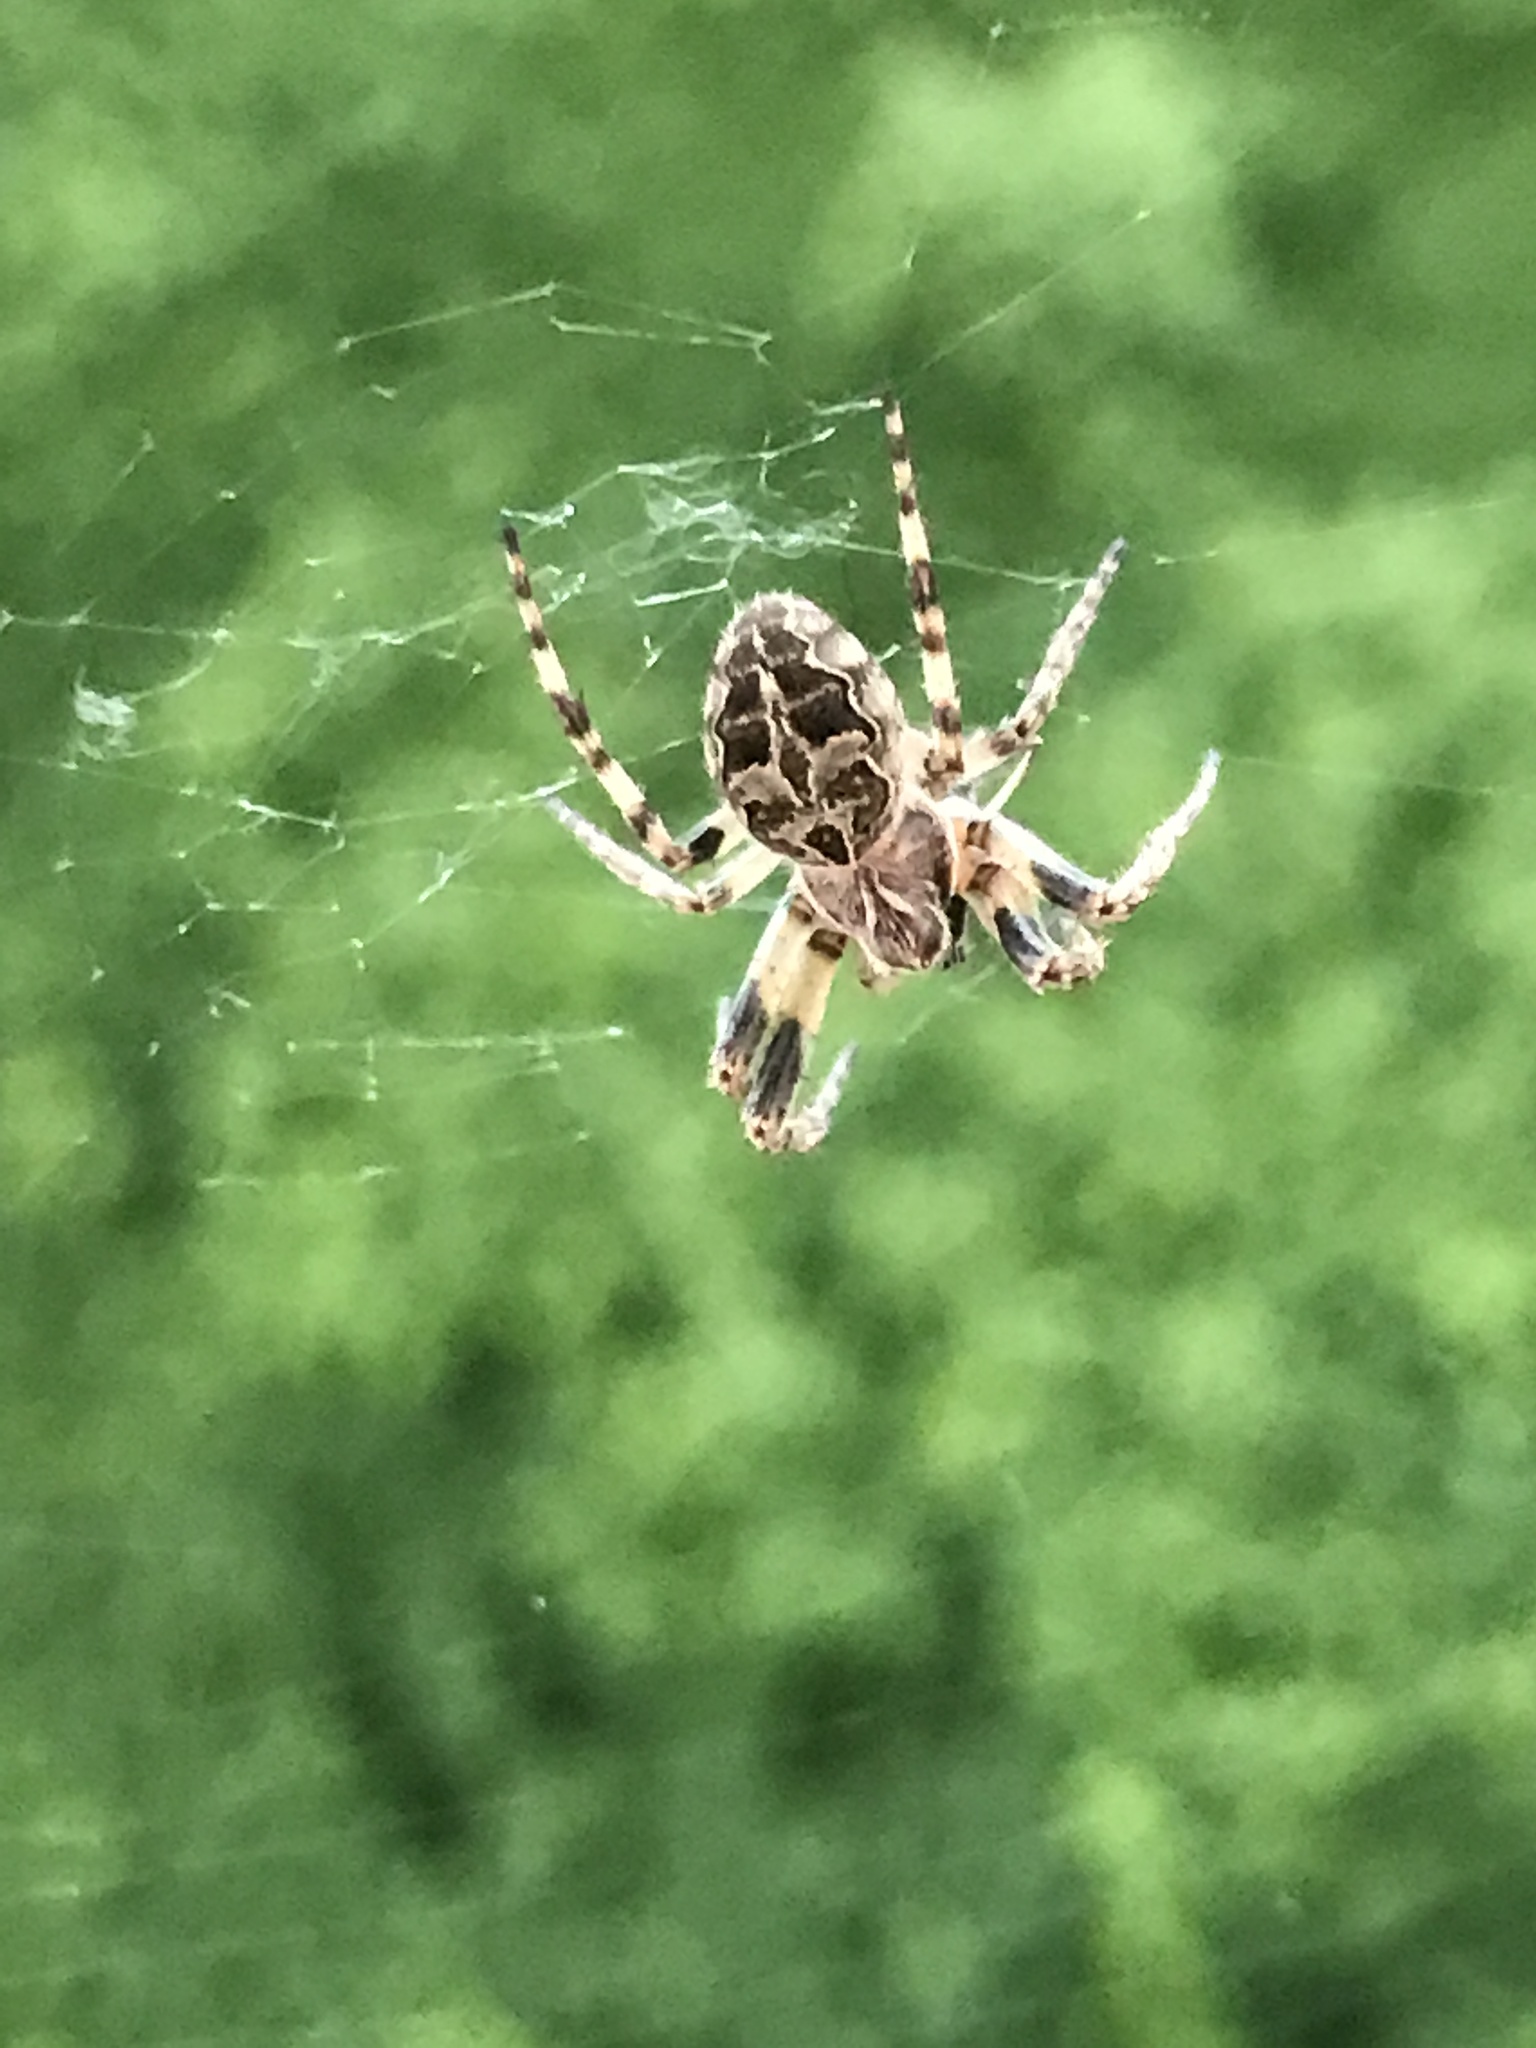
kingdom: Animalia
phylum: Arthropoda
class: Arachnida
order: Araneae
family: Araneidae
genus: Larinioides
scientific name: Larinioides sclopetarius
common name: Bridge orbweaver
